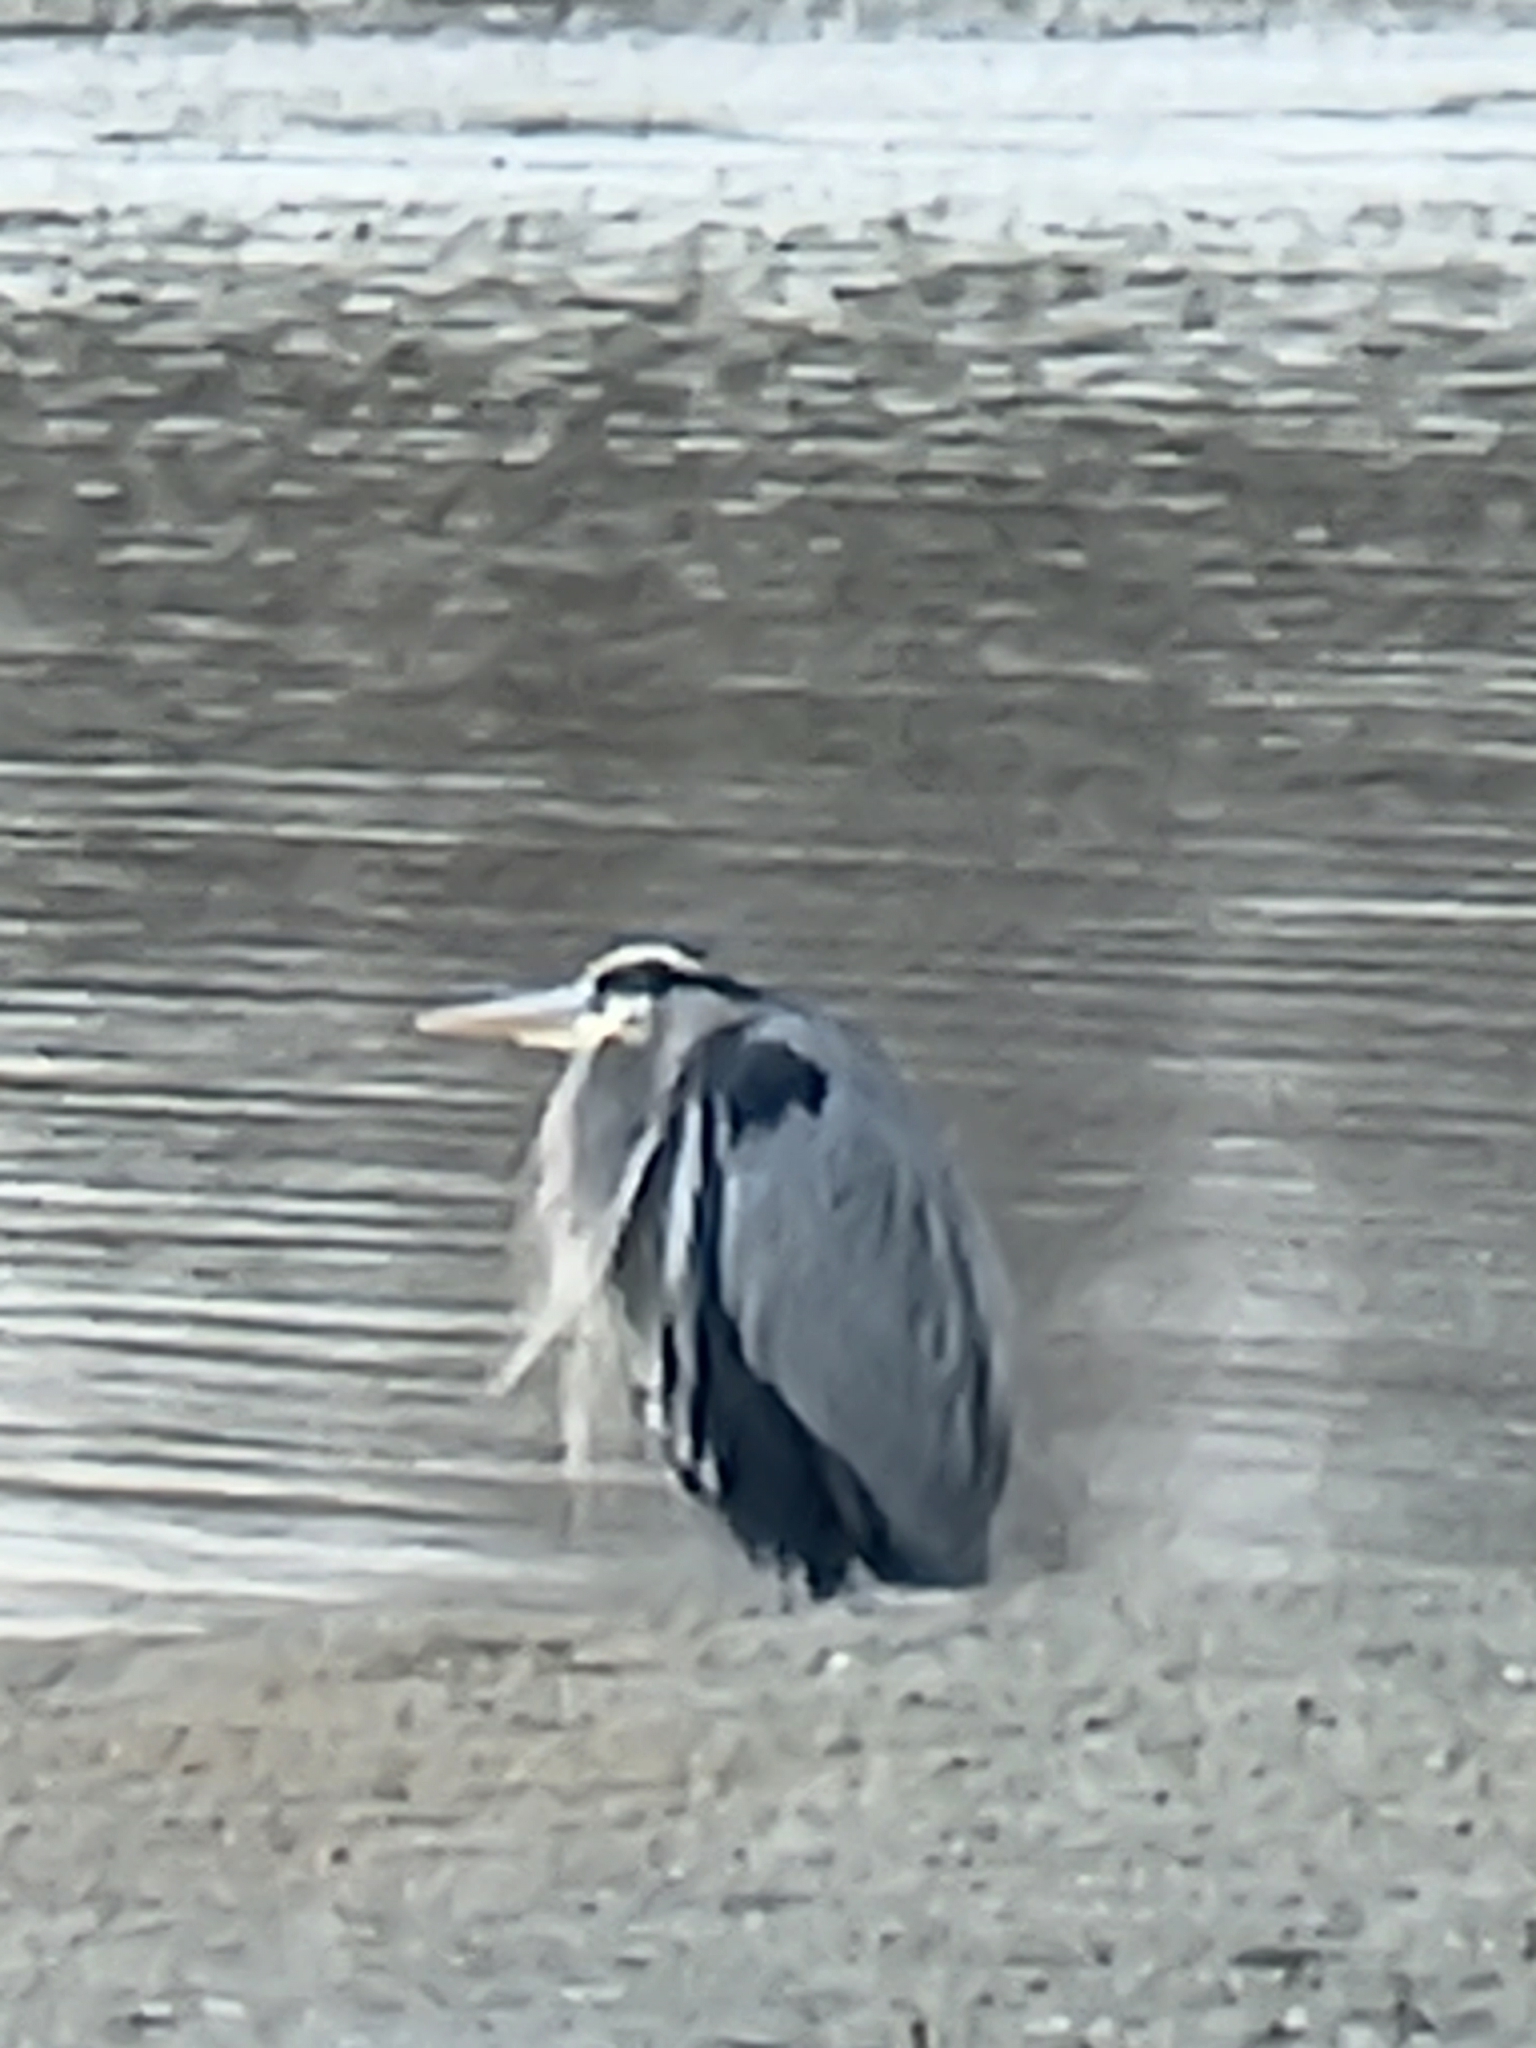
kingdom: Animalia
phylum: Chordata
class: Aves
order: Pelecaniformes
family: Ardeidae
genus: Ardea
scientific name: Ardea herodias
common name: Great blue heron
